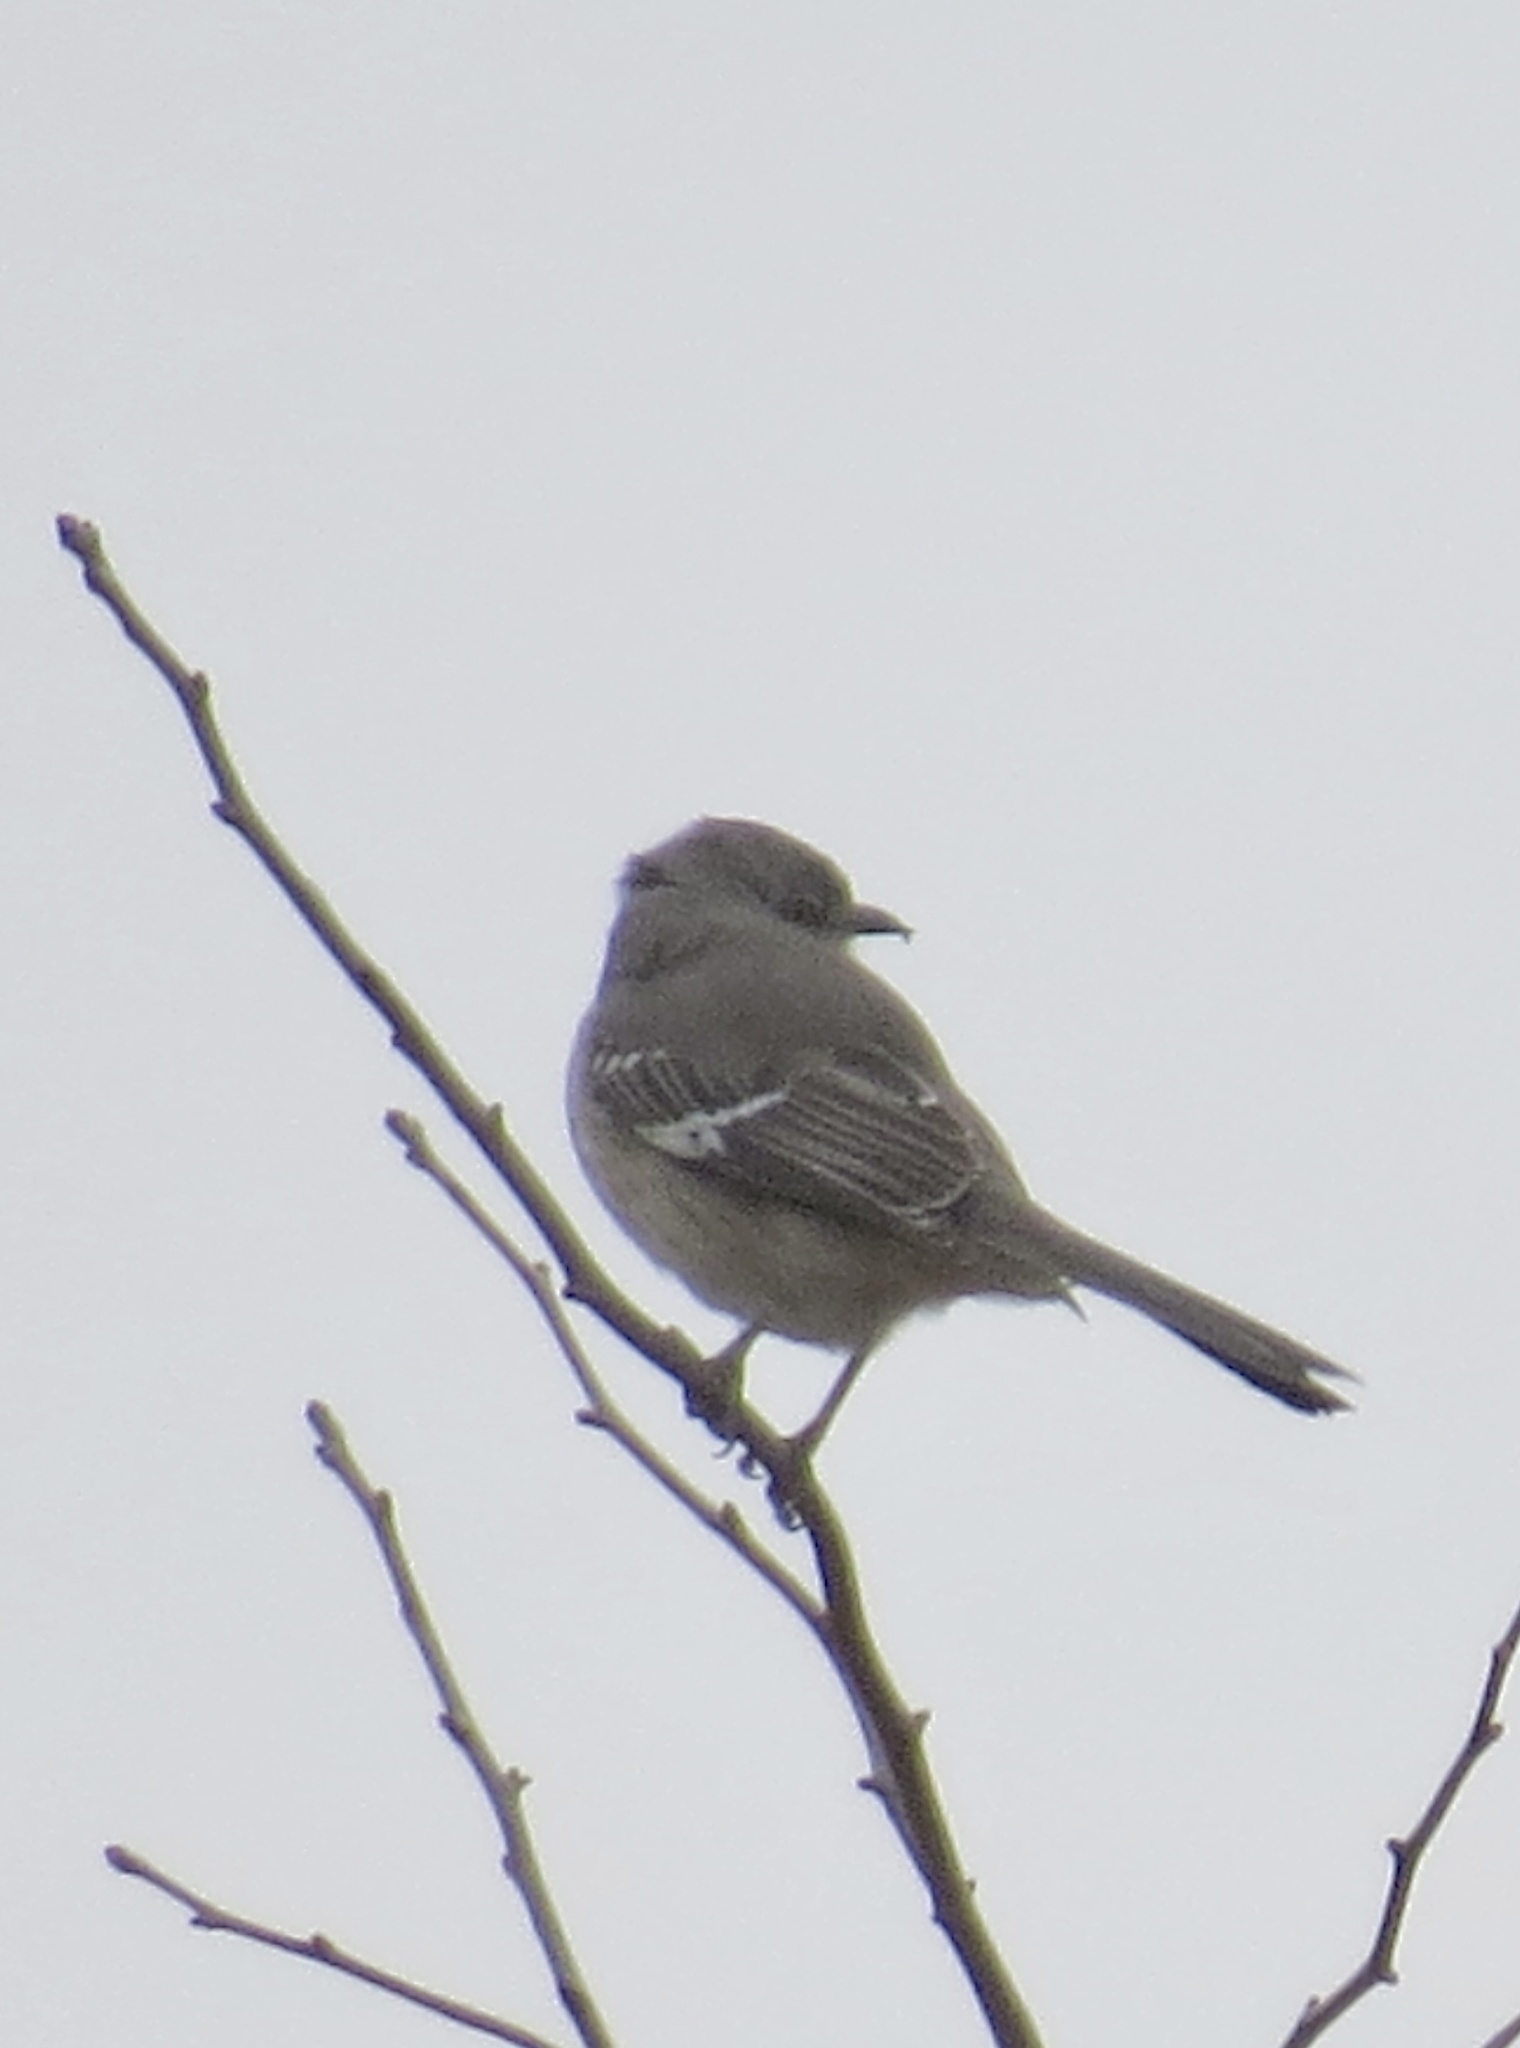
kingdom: Animalia
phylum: Chordata
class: Aves
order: Passeriformes
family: Mimidae
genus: Mimus
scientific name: Mimus polyglottos
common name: Northern mockingbird
